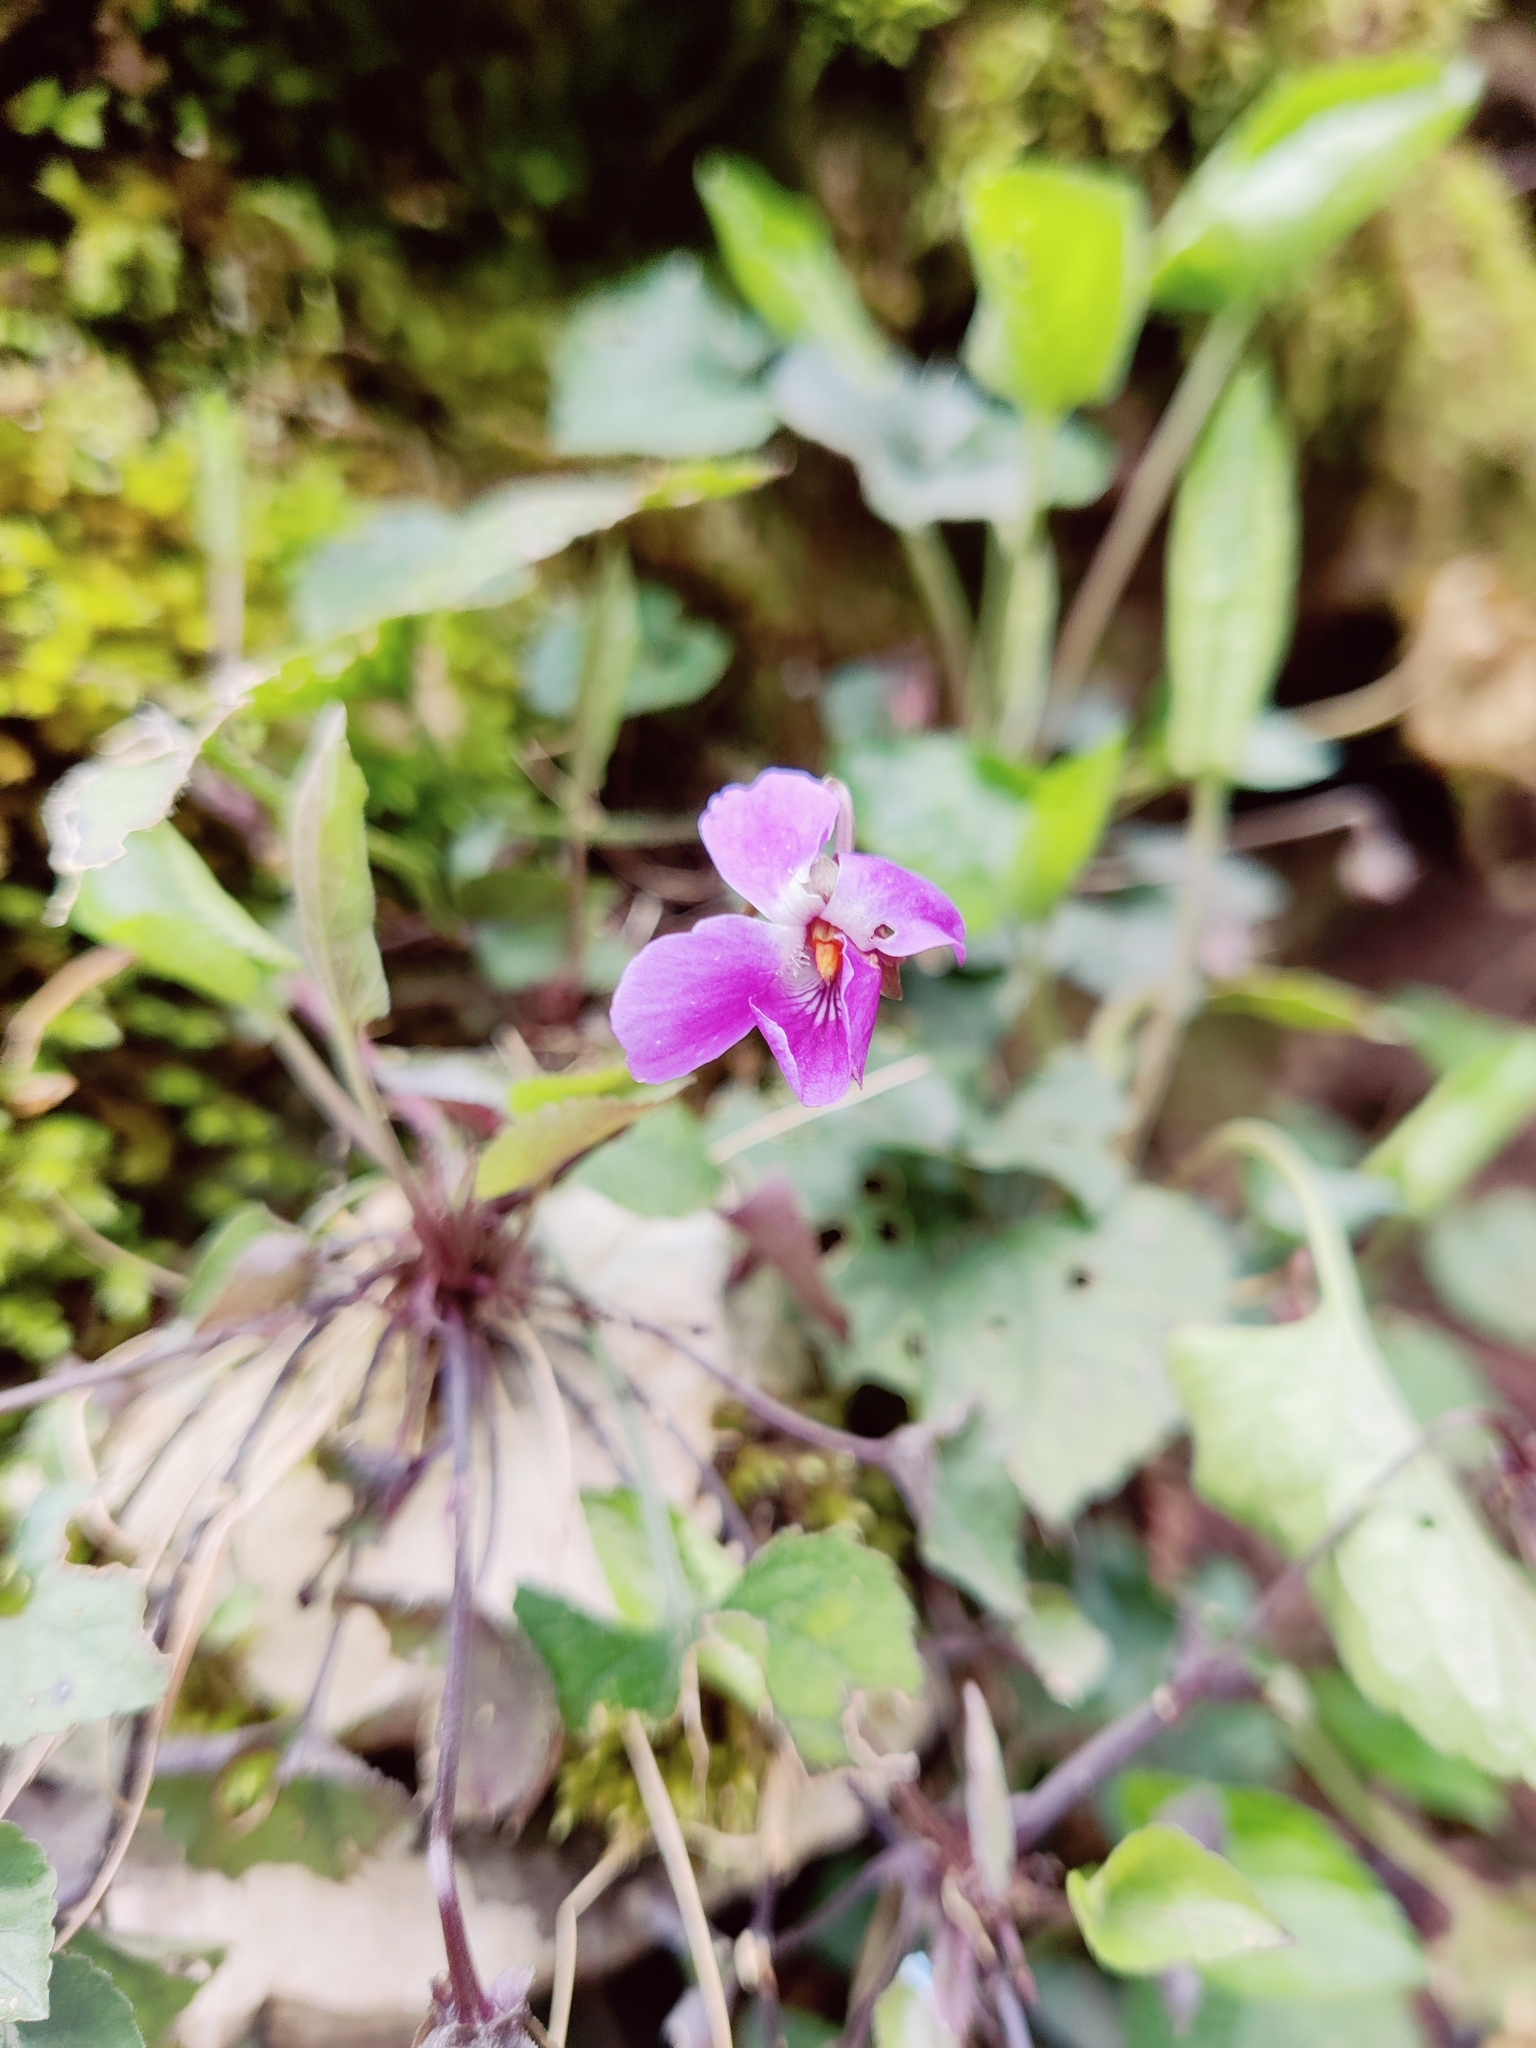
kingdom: Plantae
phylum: Tracheophyta
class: Magnoliopsida
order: Malpighiales
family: Violaceae
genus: Viola
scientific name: Viola alba
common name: White violet
